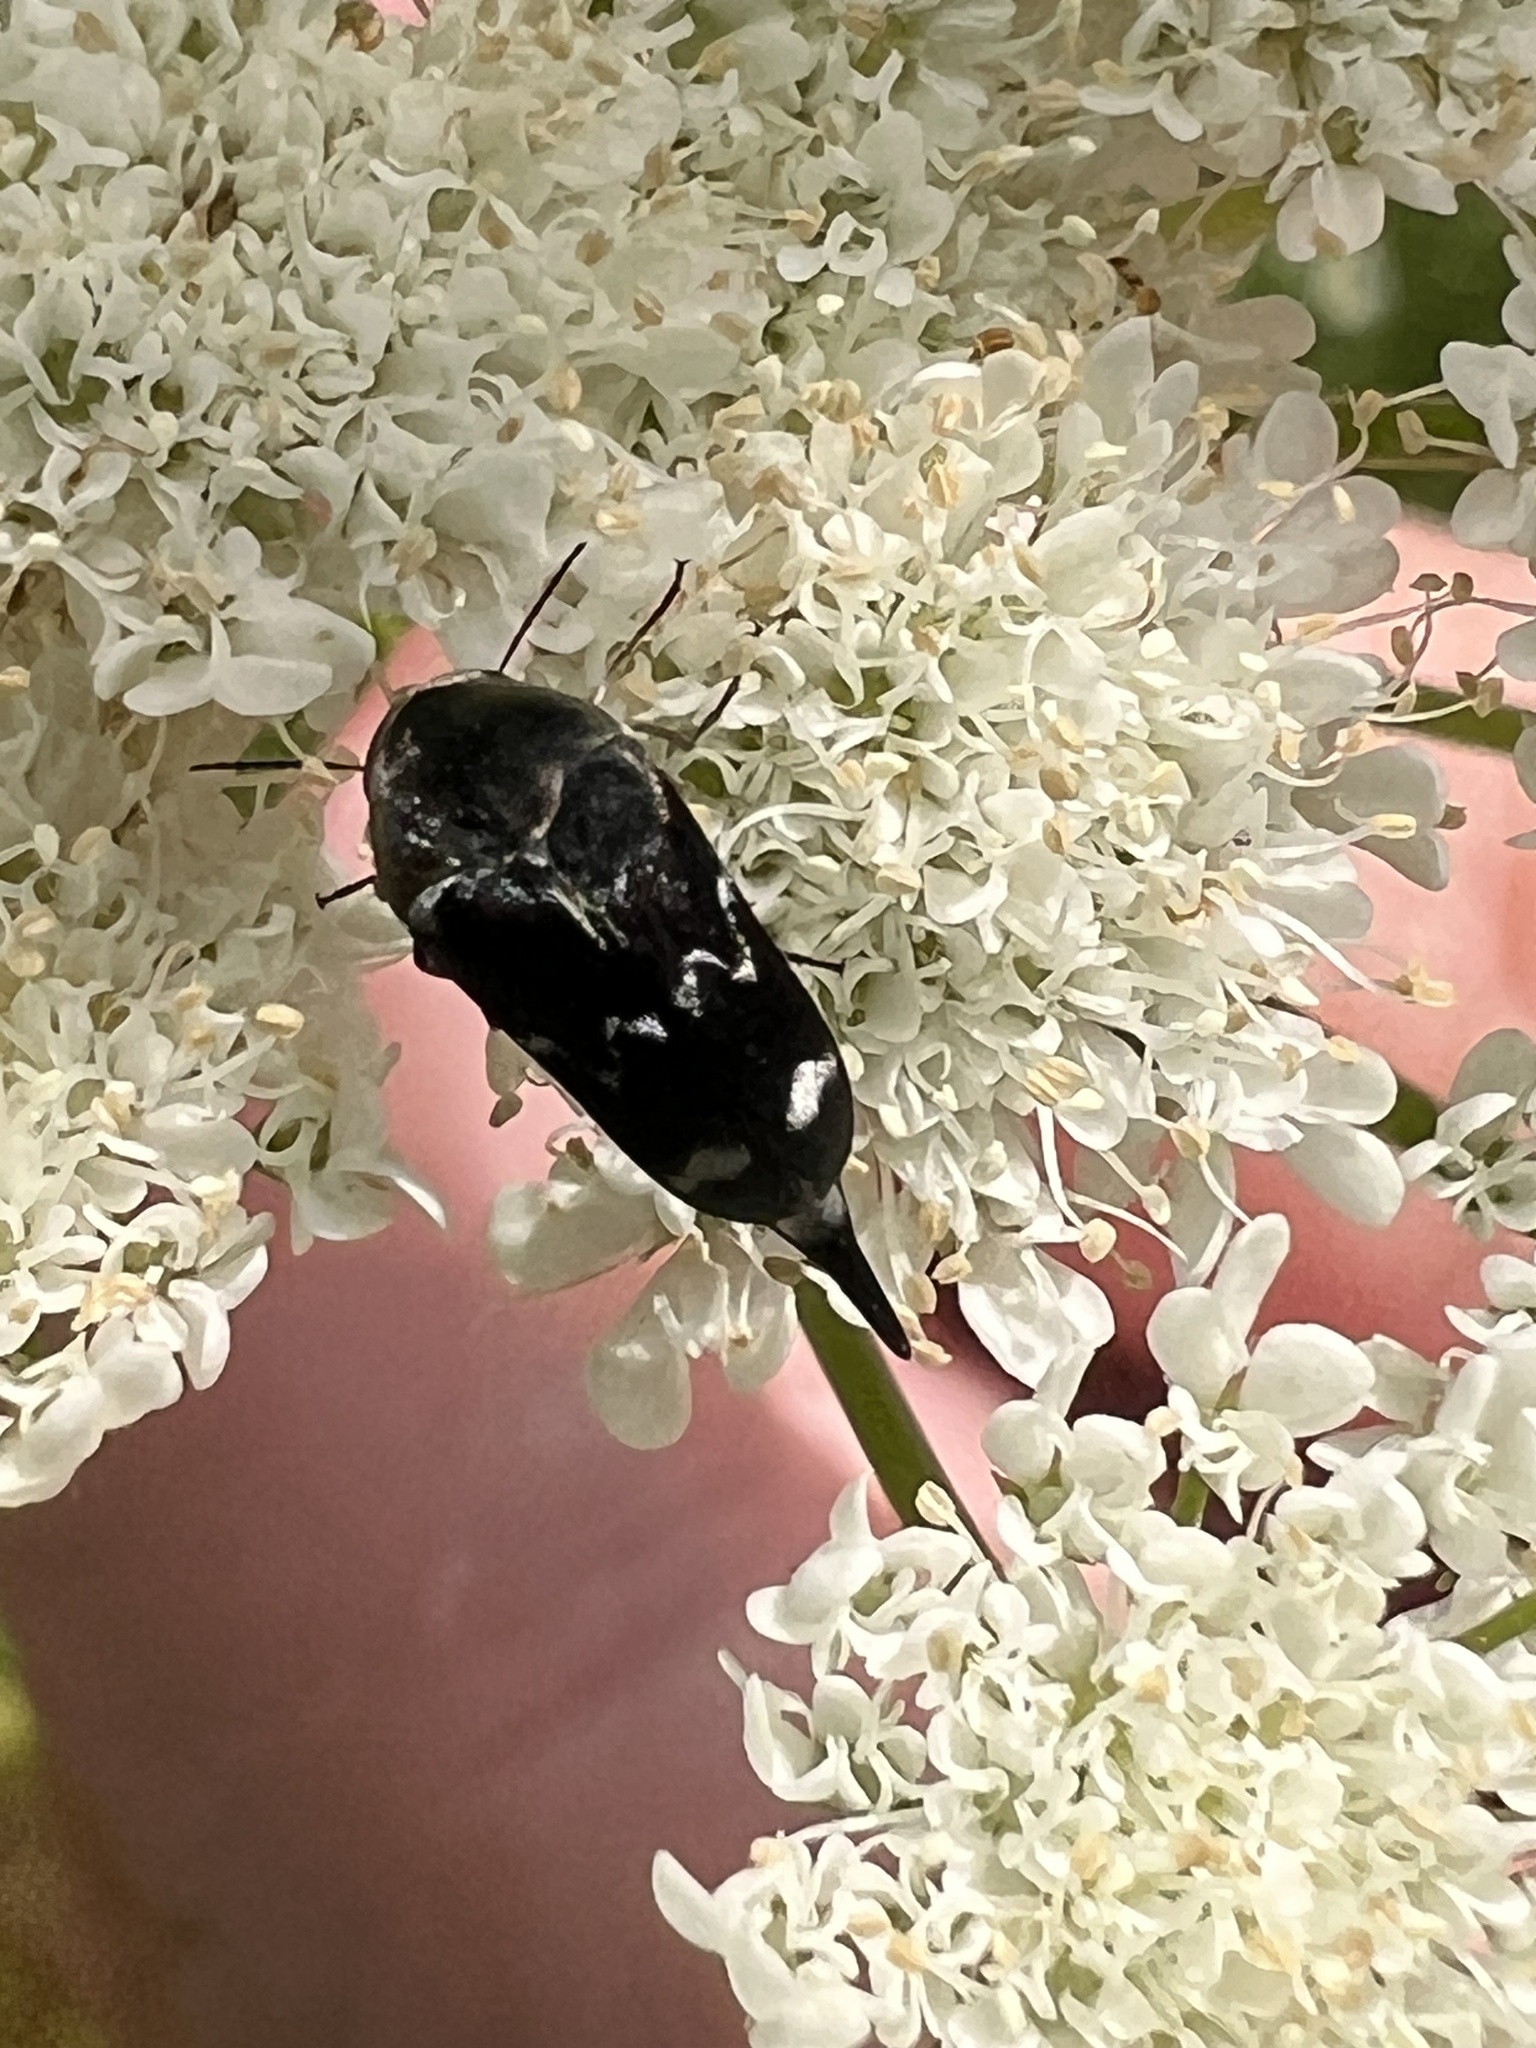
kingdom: Animalia
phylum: Arthropoda
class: Insecta
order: Coleoptera
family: Mordellidae
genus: Mordella
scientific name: Mordella
